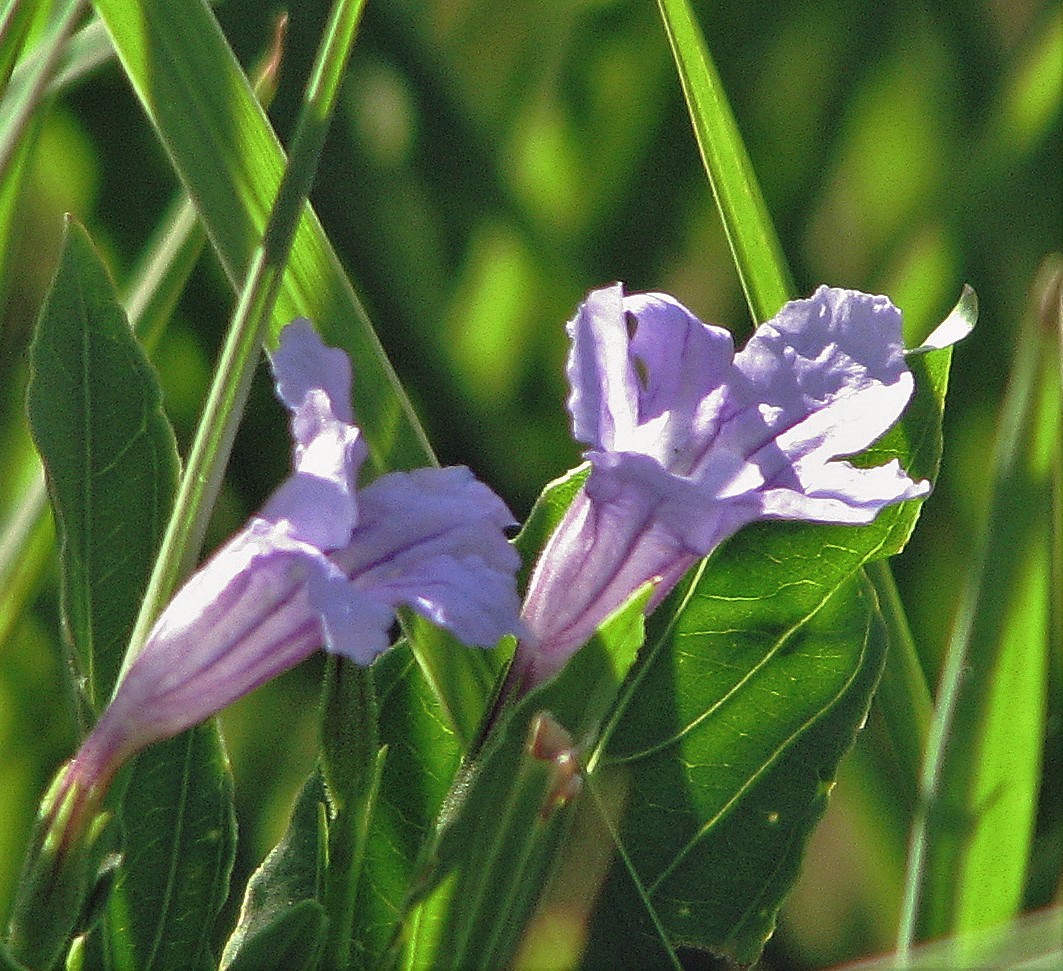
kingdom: Plantae
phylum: Tracheophyta
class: Magnoliopsida
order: Lamiales
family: Acanthaceae
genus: Ruellia
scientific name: Ruellia simplex
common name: Softseed wild petunia
